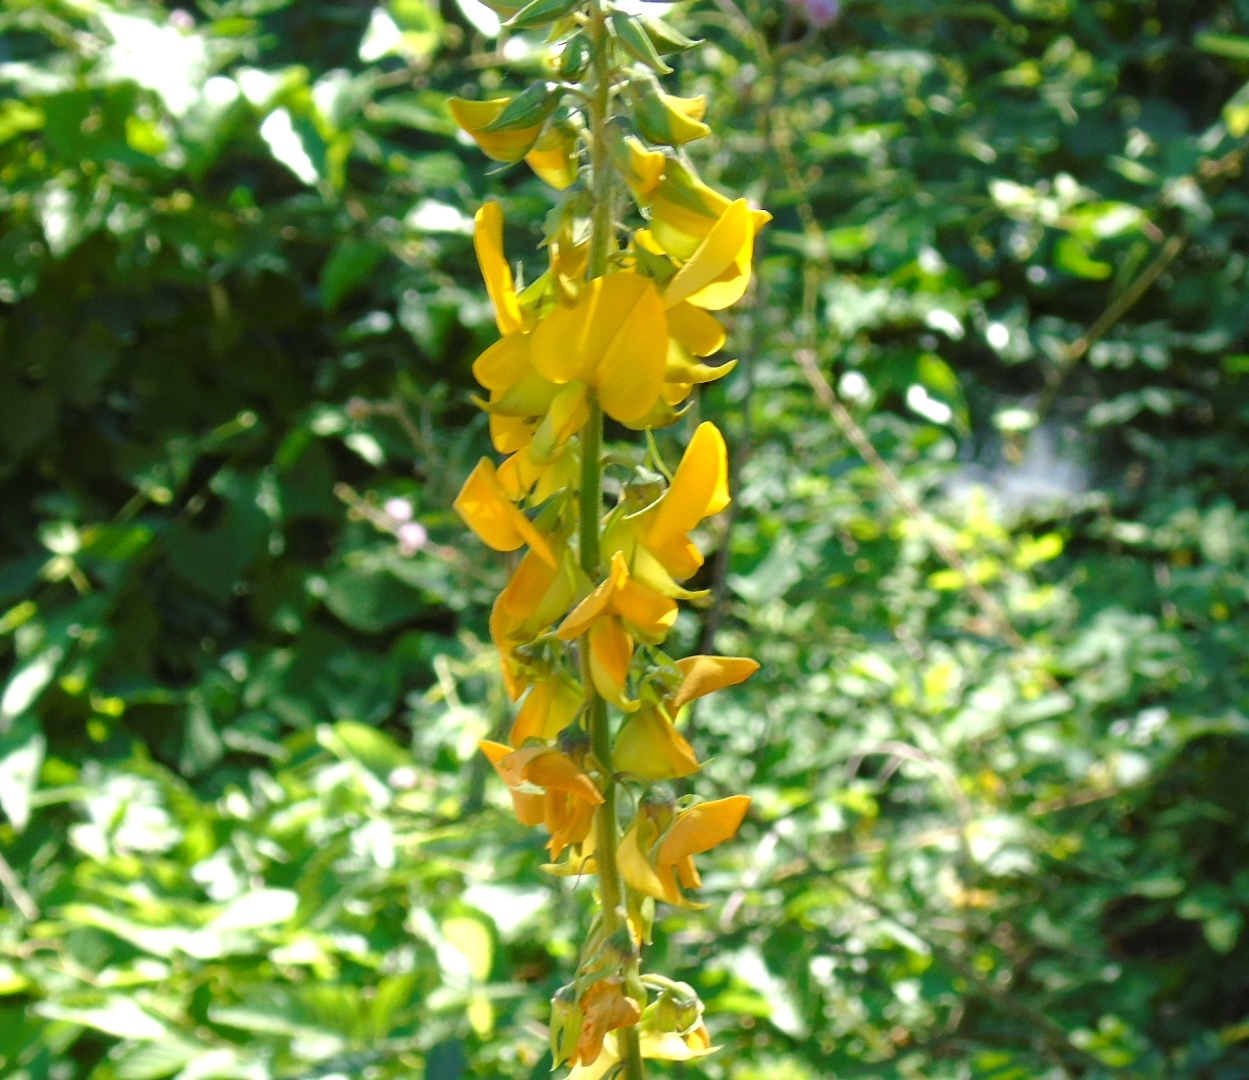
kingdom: Plantae
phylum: Tracheophyta
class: Magnoliopsida
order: Fabales
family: Fabaceae
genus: Crotalaria
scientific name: Crotalaria
